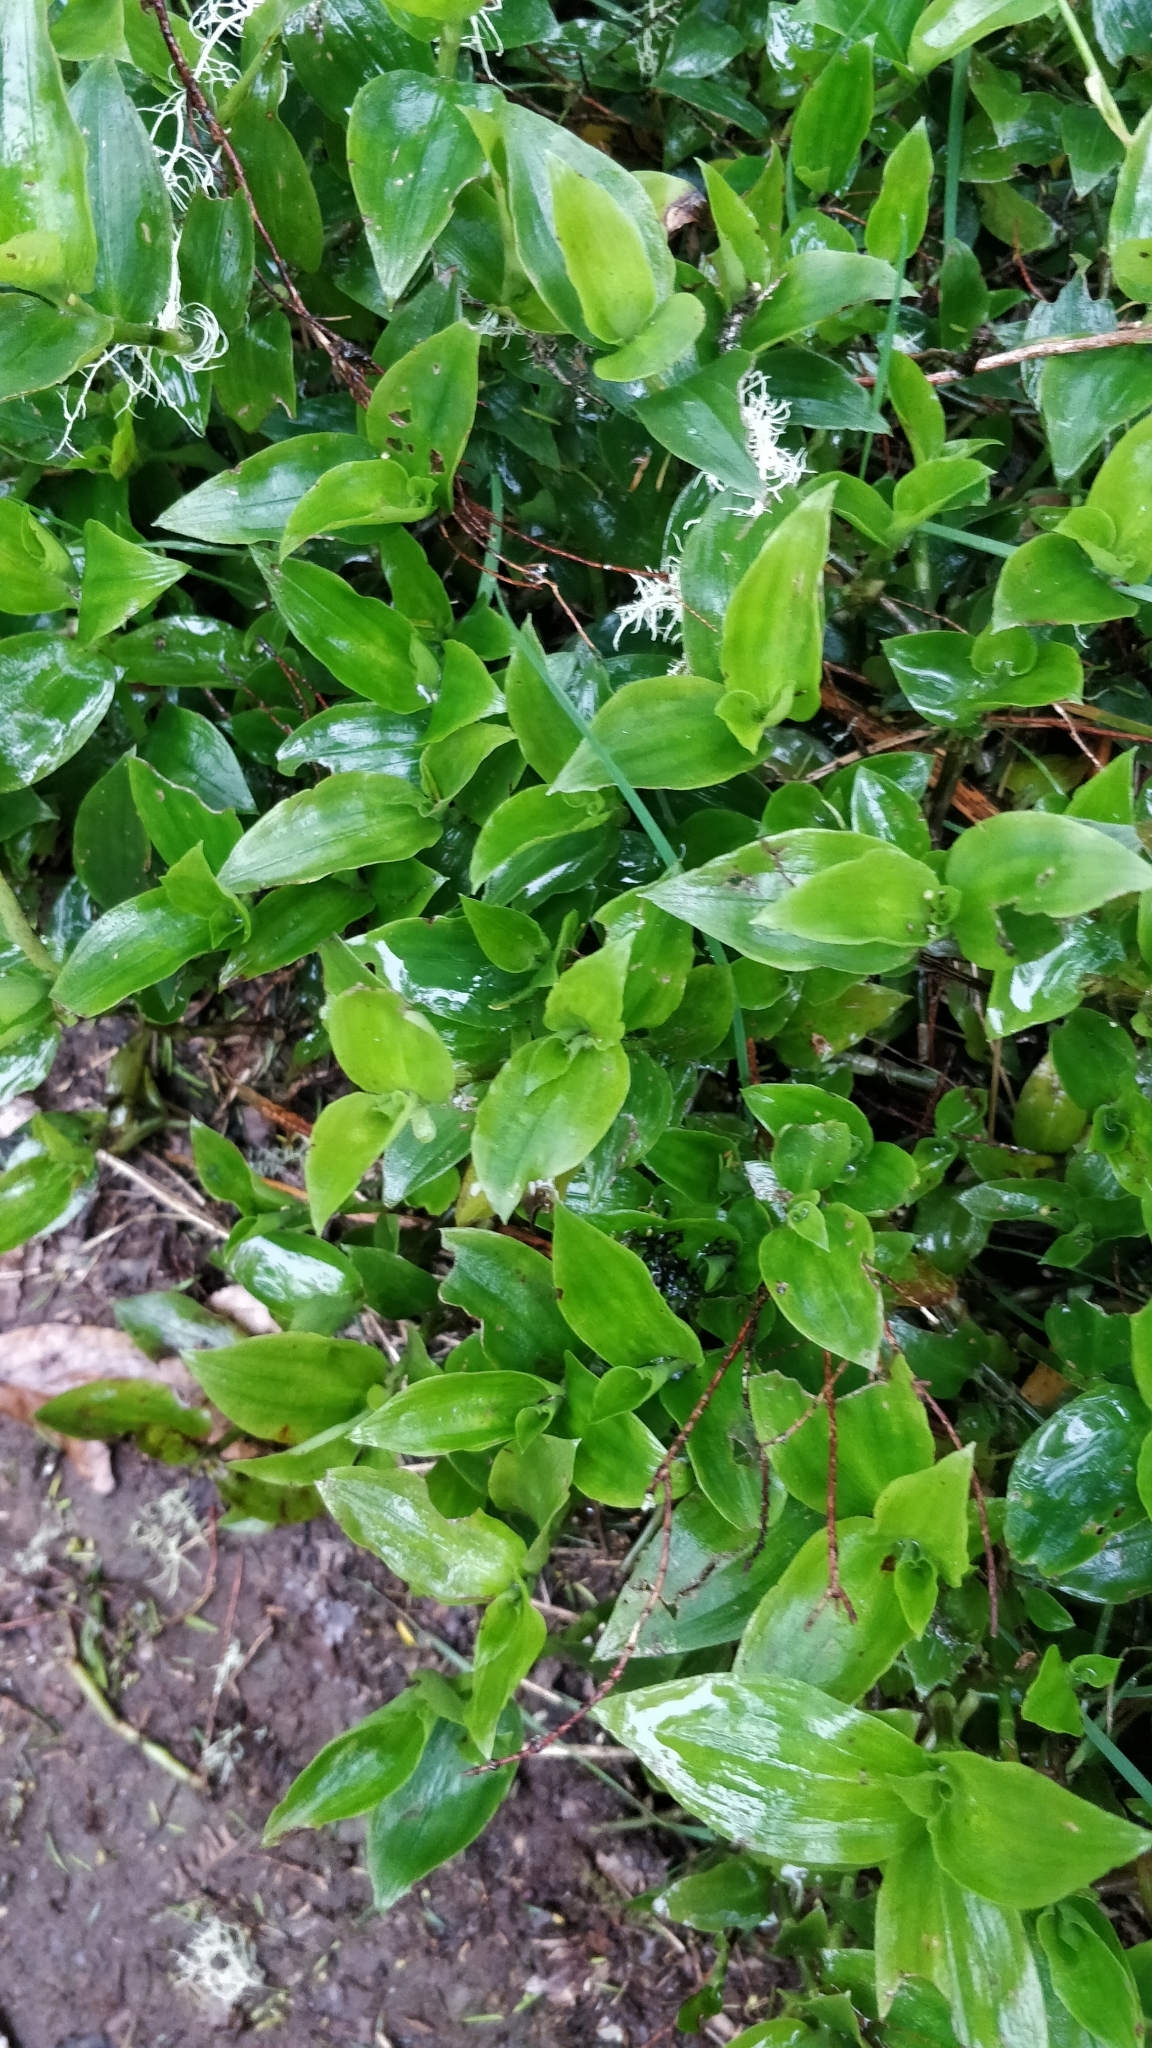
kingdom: Plantae
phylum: Tracheophyta
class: Liliopsida
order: Commelinales
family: Commelinaceae
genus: Tradescantia
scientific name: Tradescantia fluminensis
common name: Wandering-jew
